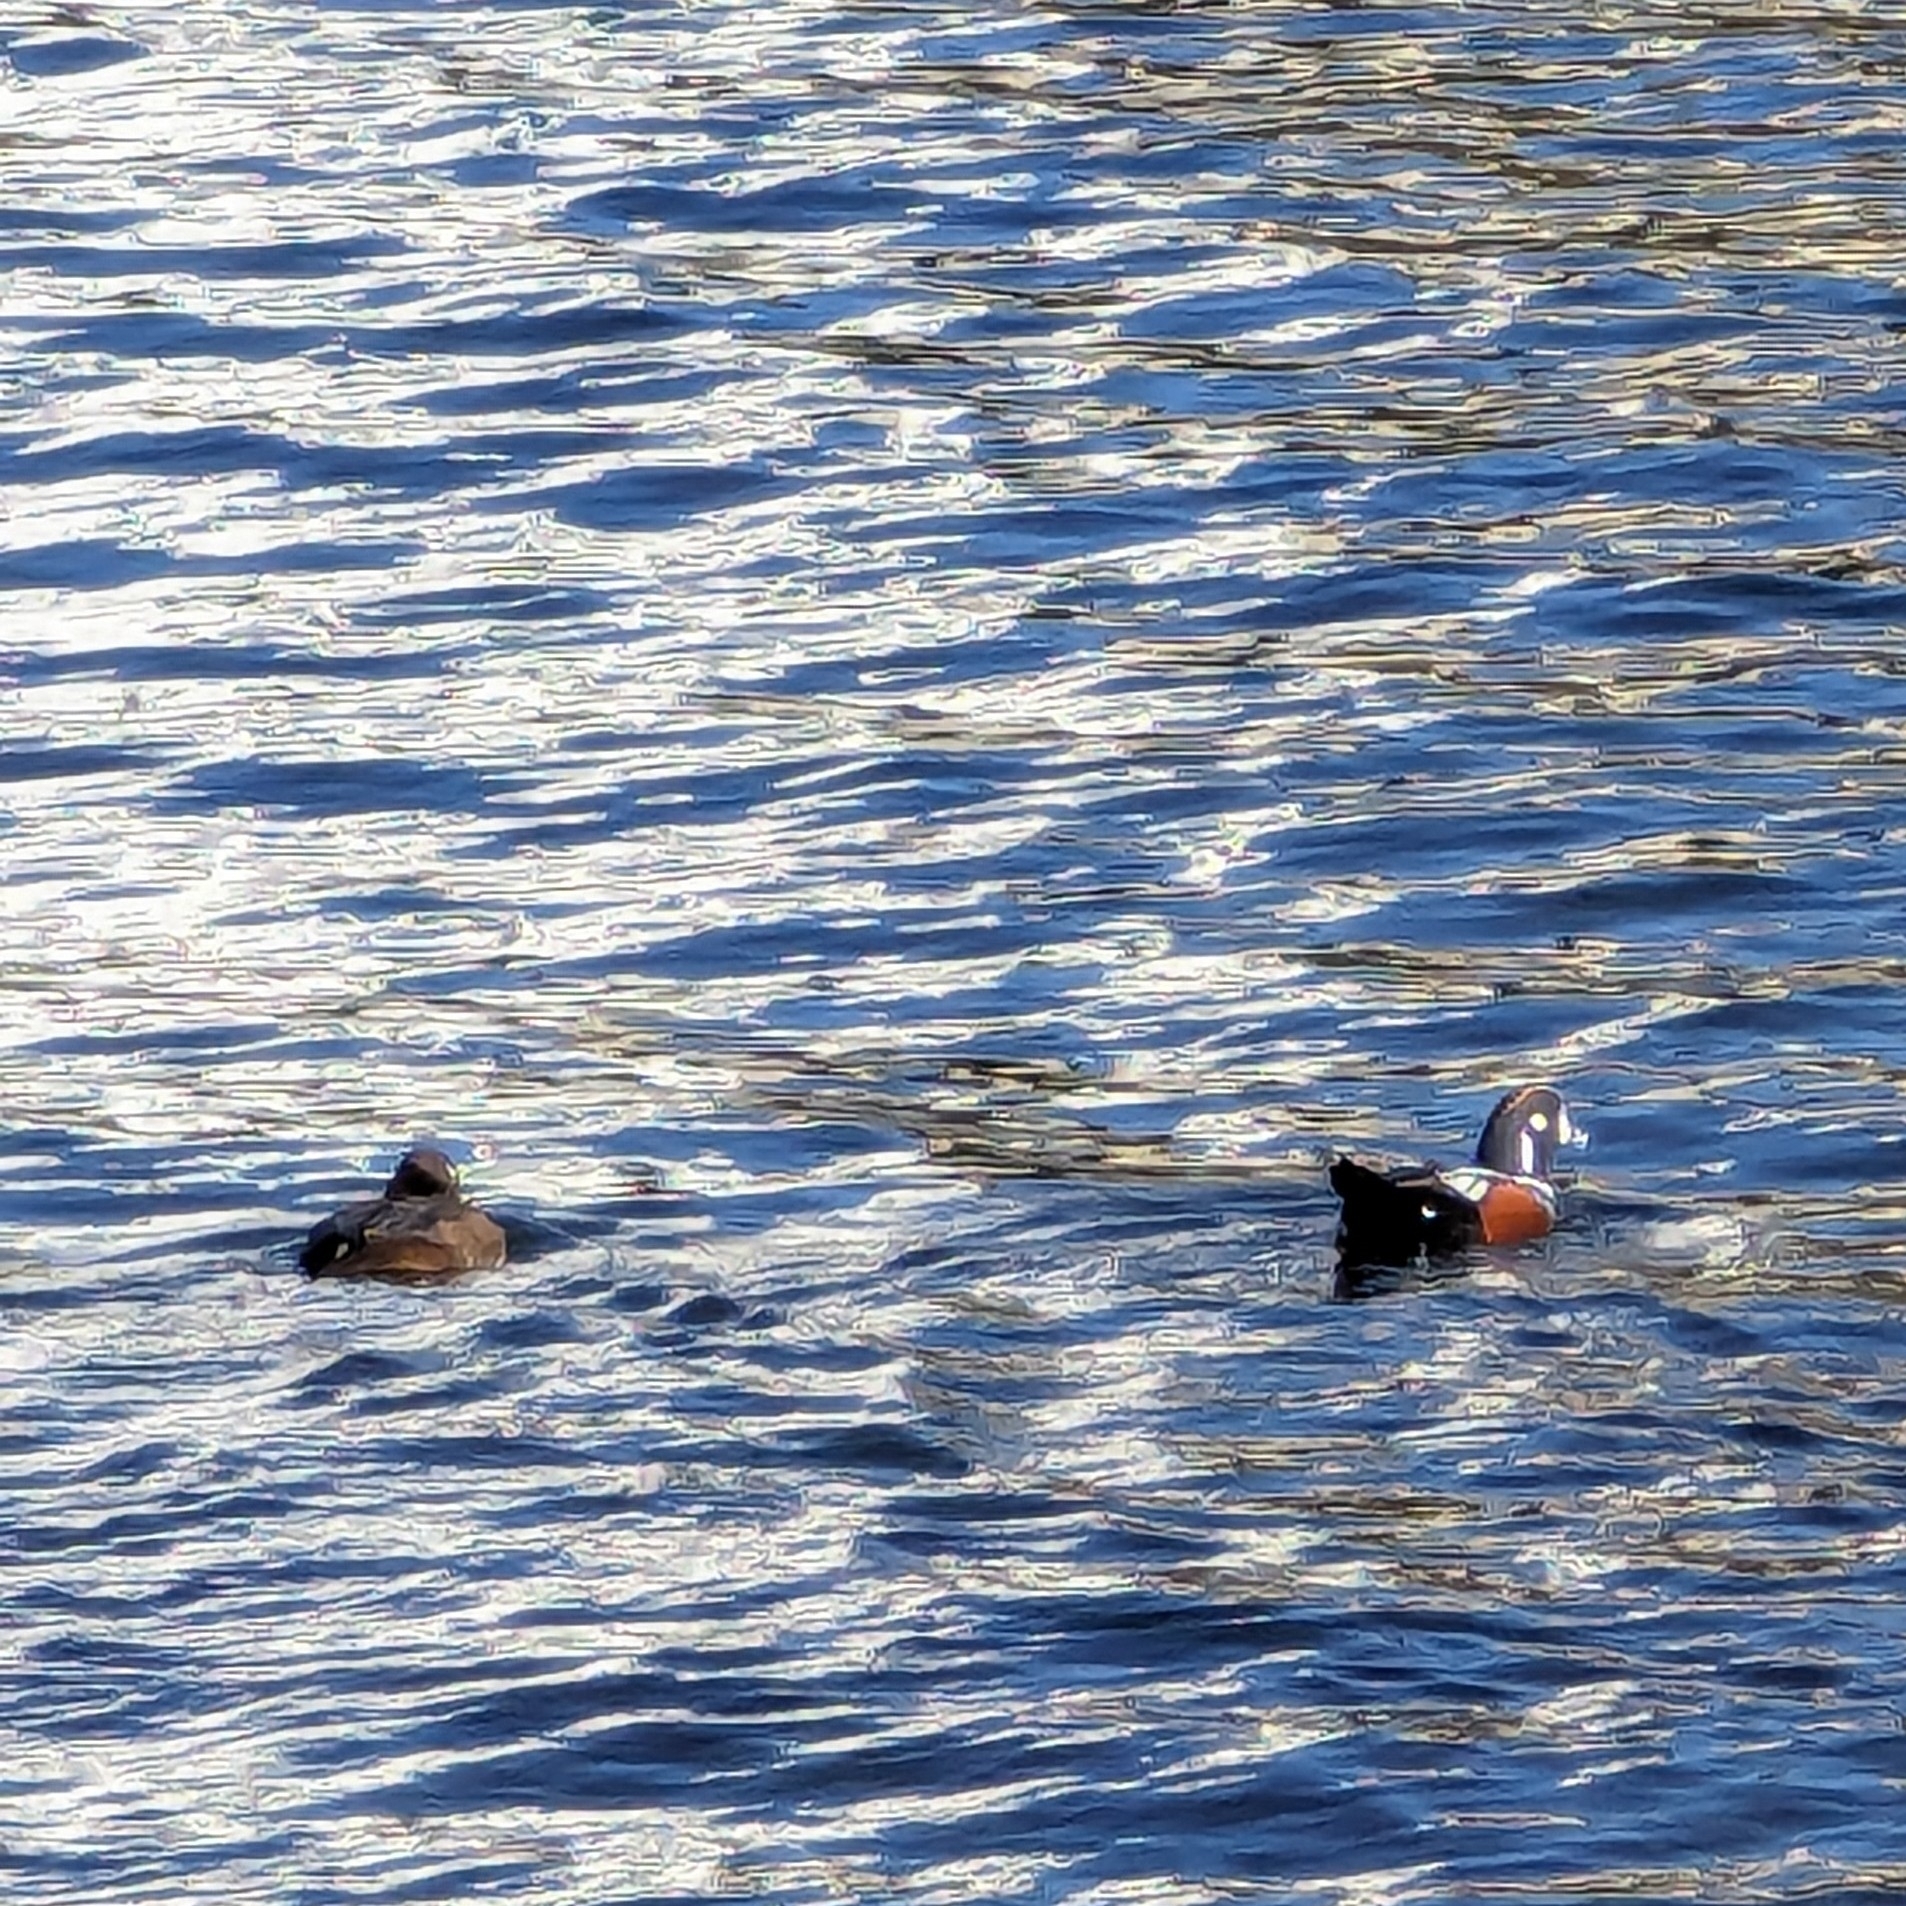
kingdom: Animalia
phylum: Chordata
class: Aves
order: Anseriformes
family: Anatidae
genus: Histrionicus
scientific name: Histrionicus histrionicus
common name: Harlequin duck
